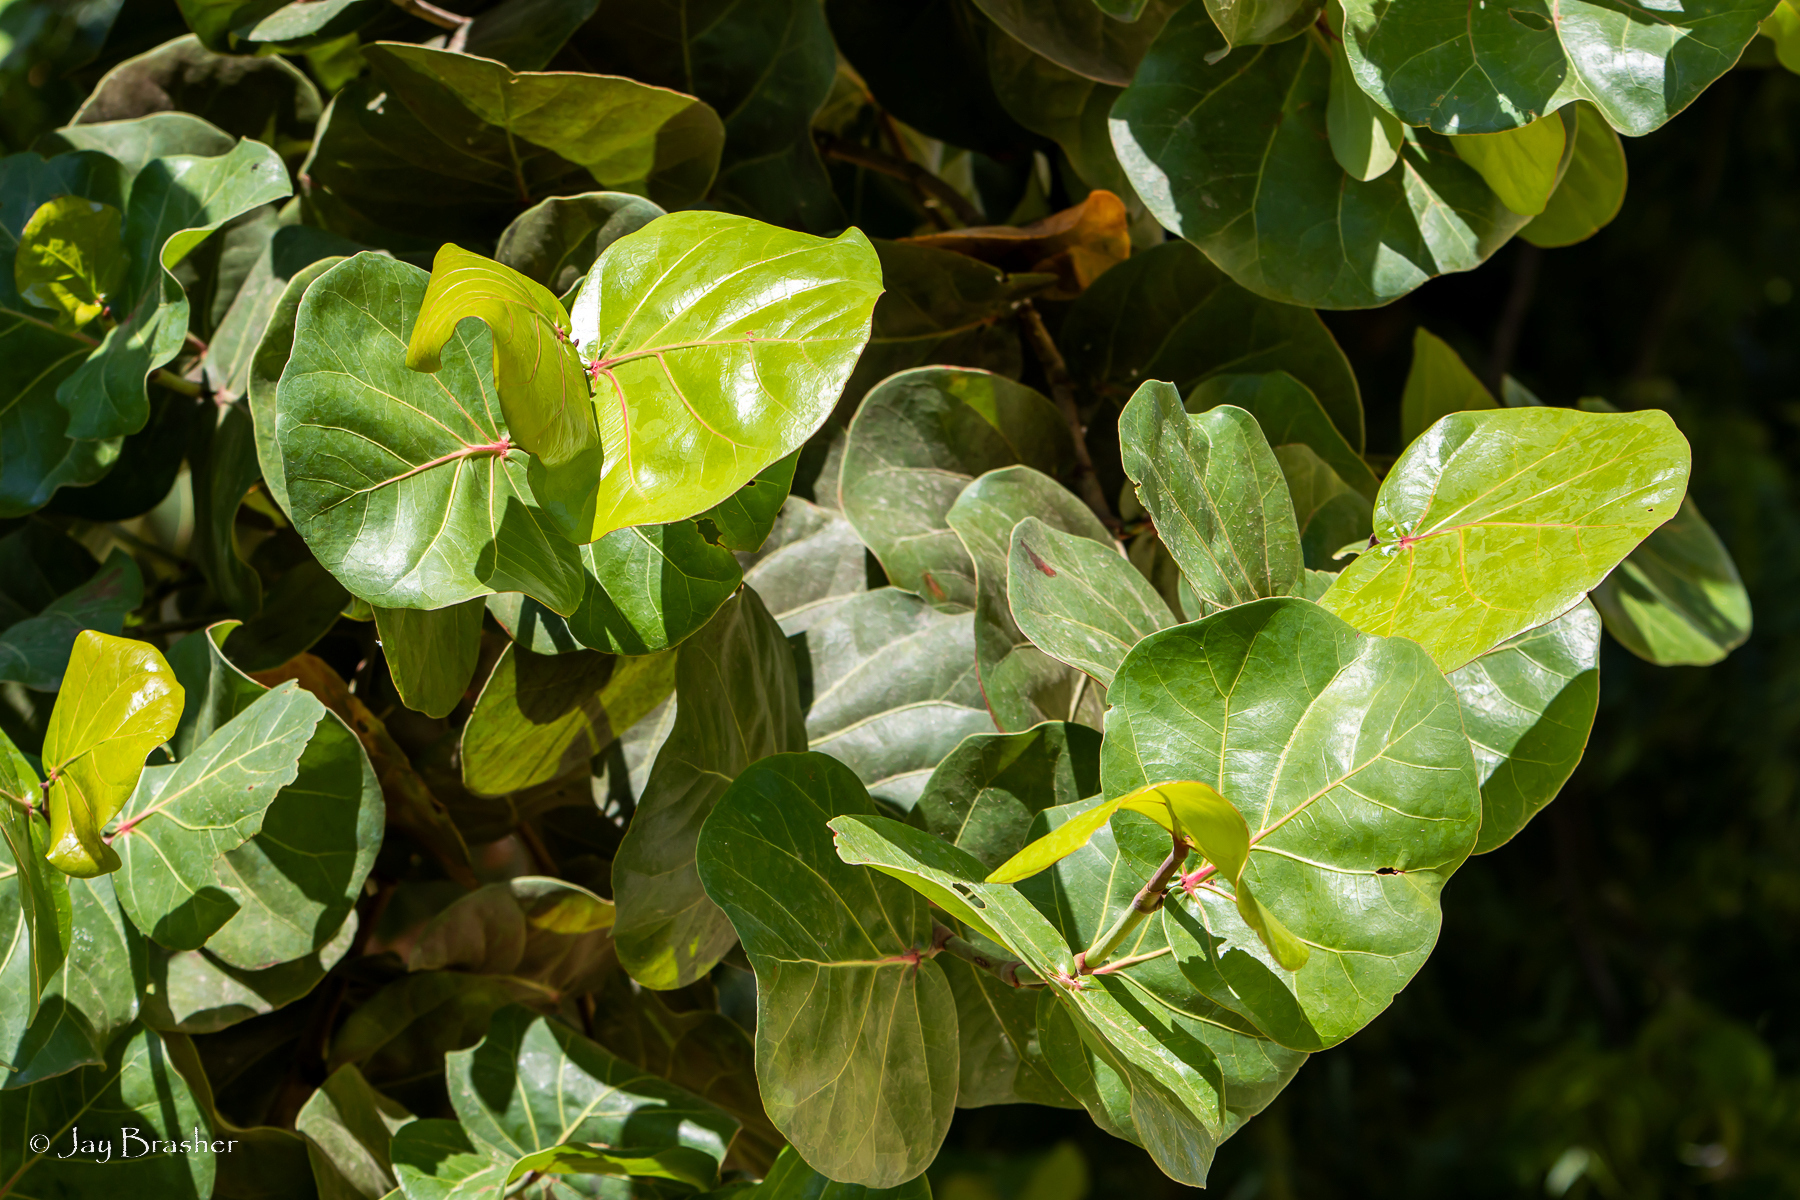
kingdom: Plantae
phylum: Tracheophyta
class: Magnoliopsida
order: Caryophyllales
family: Polygonaceae
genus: Coccoloba
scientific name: Coccoloba uvifera
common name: Seagrape
